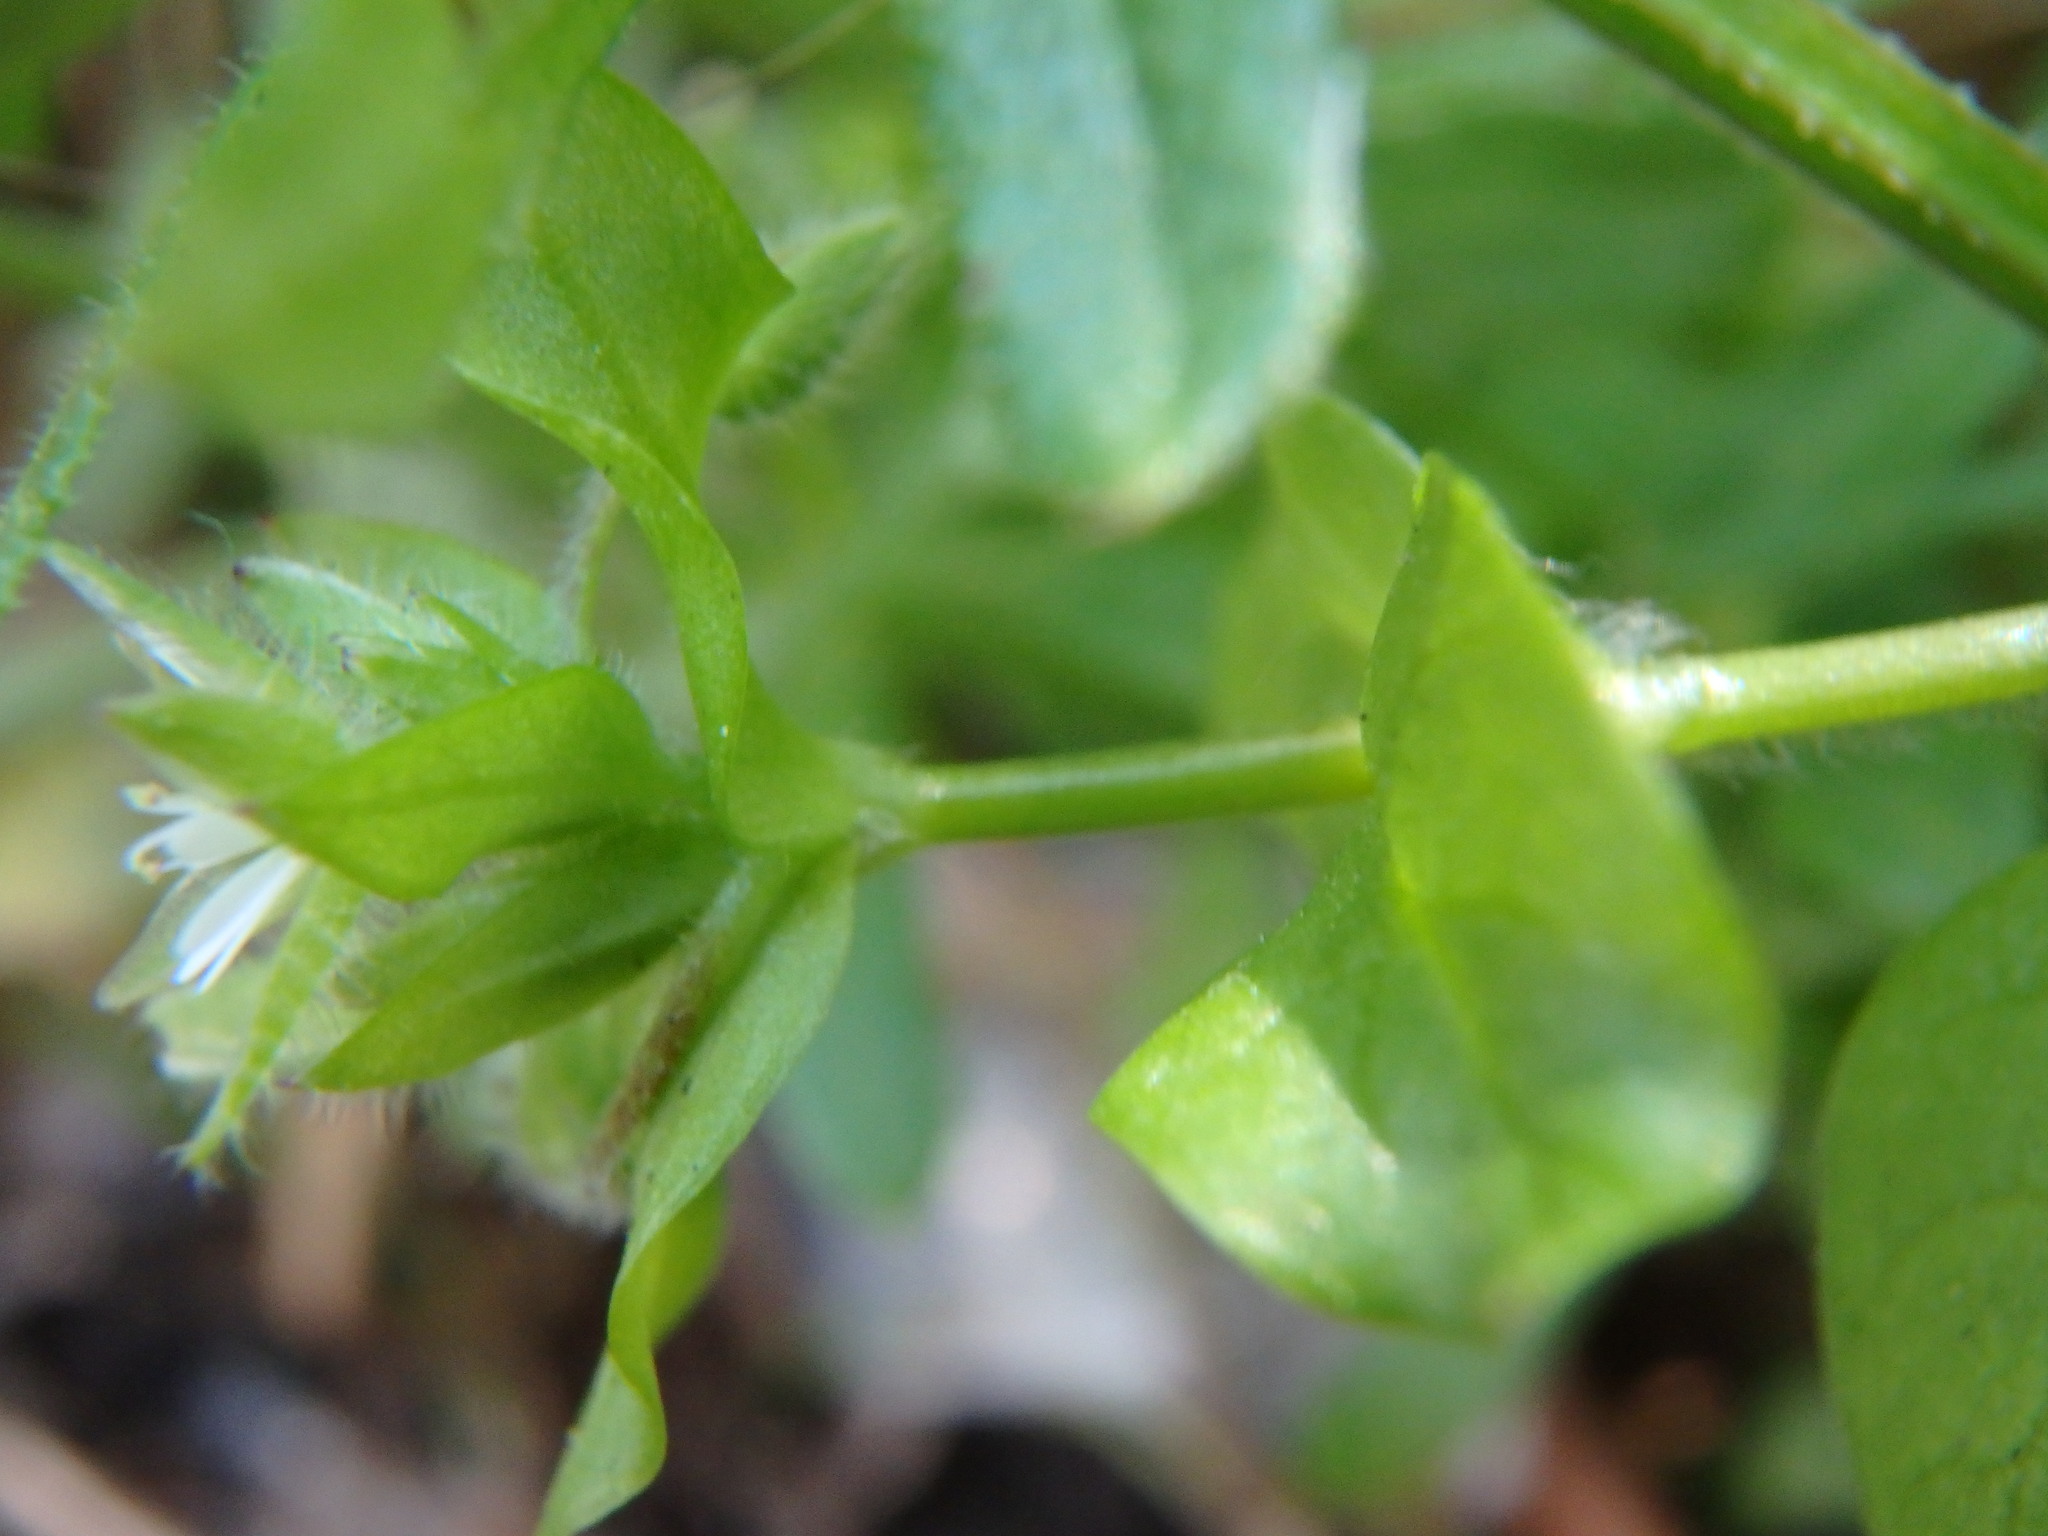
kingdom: Plantae
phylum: Tracheophyta
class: Magnoliopsida
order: Caryophyllales
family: Caryophyllaceae
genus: Stellaria
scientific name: Stellaria media
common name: Common chickweed
